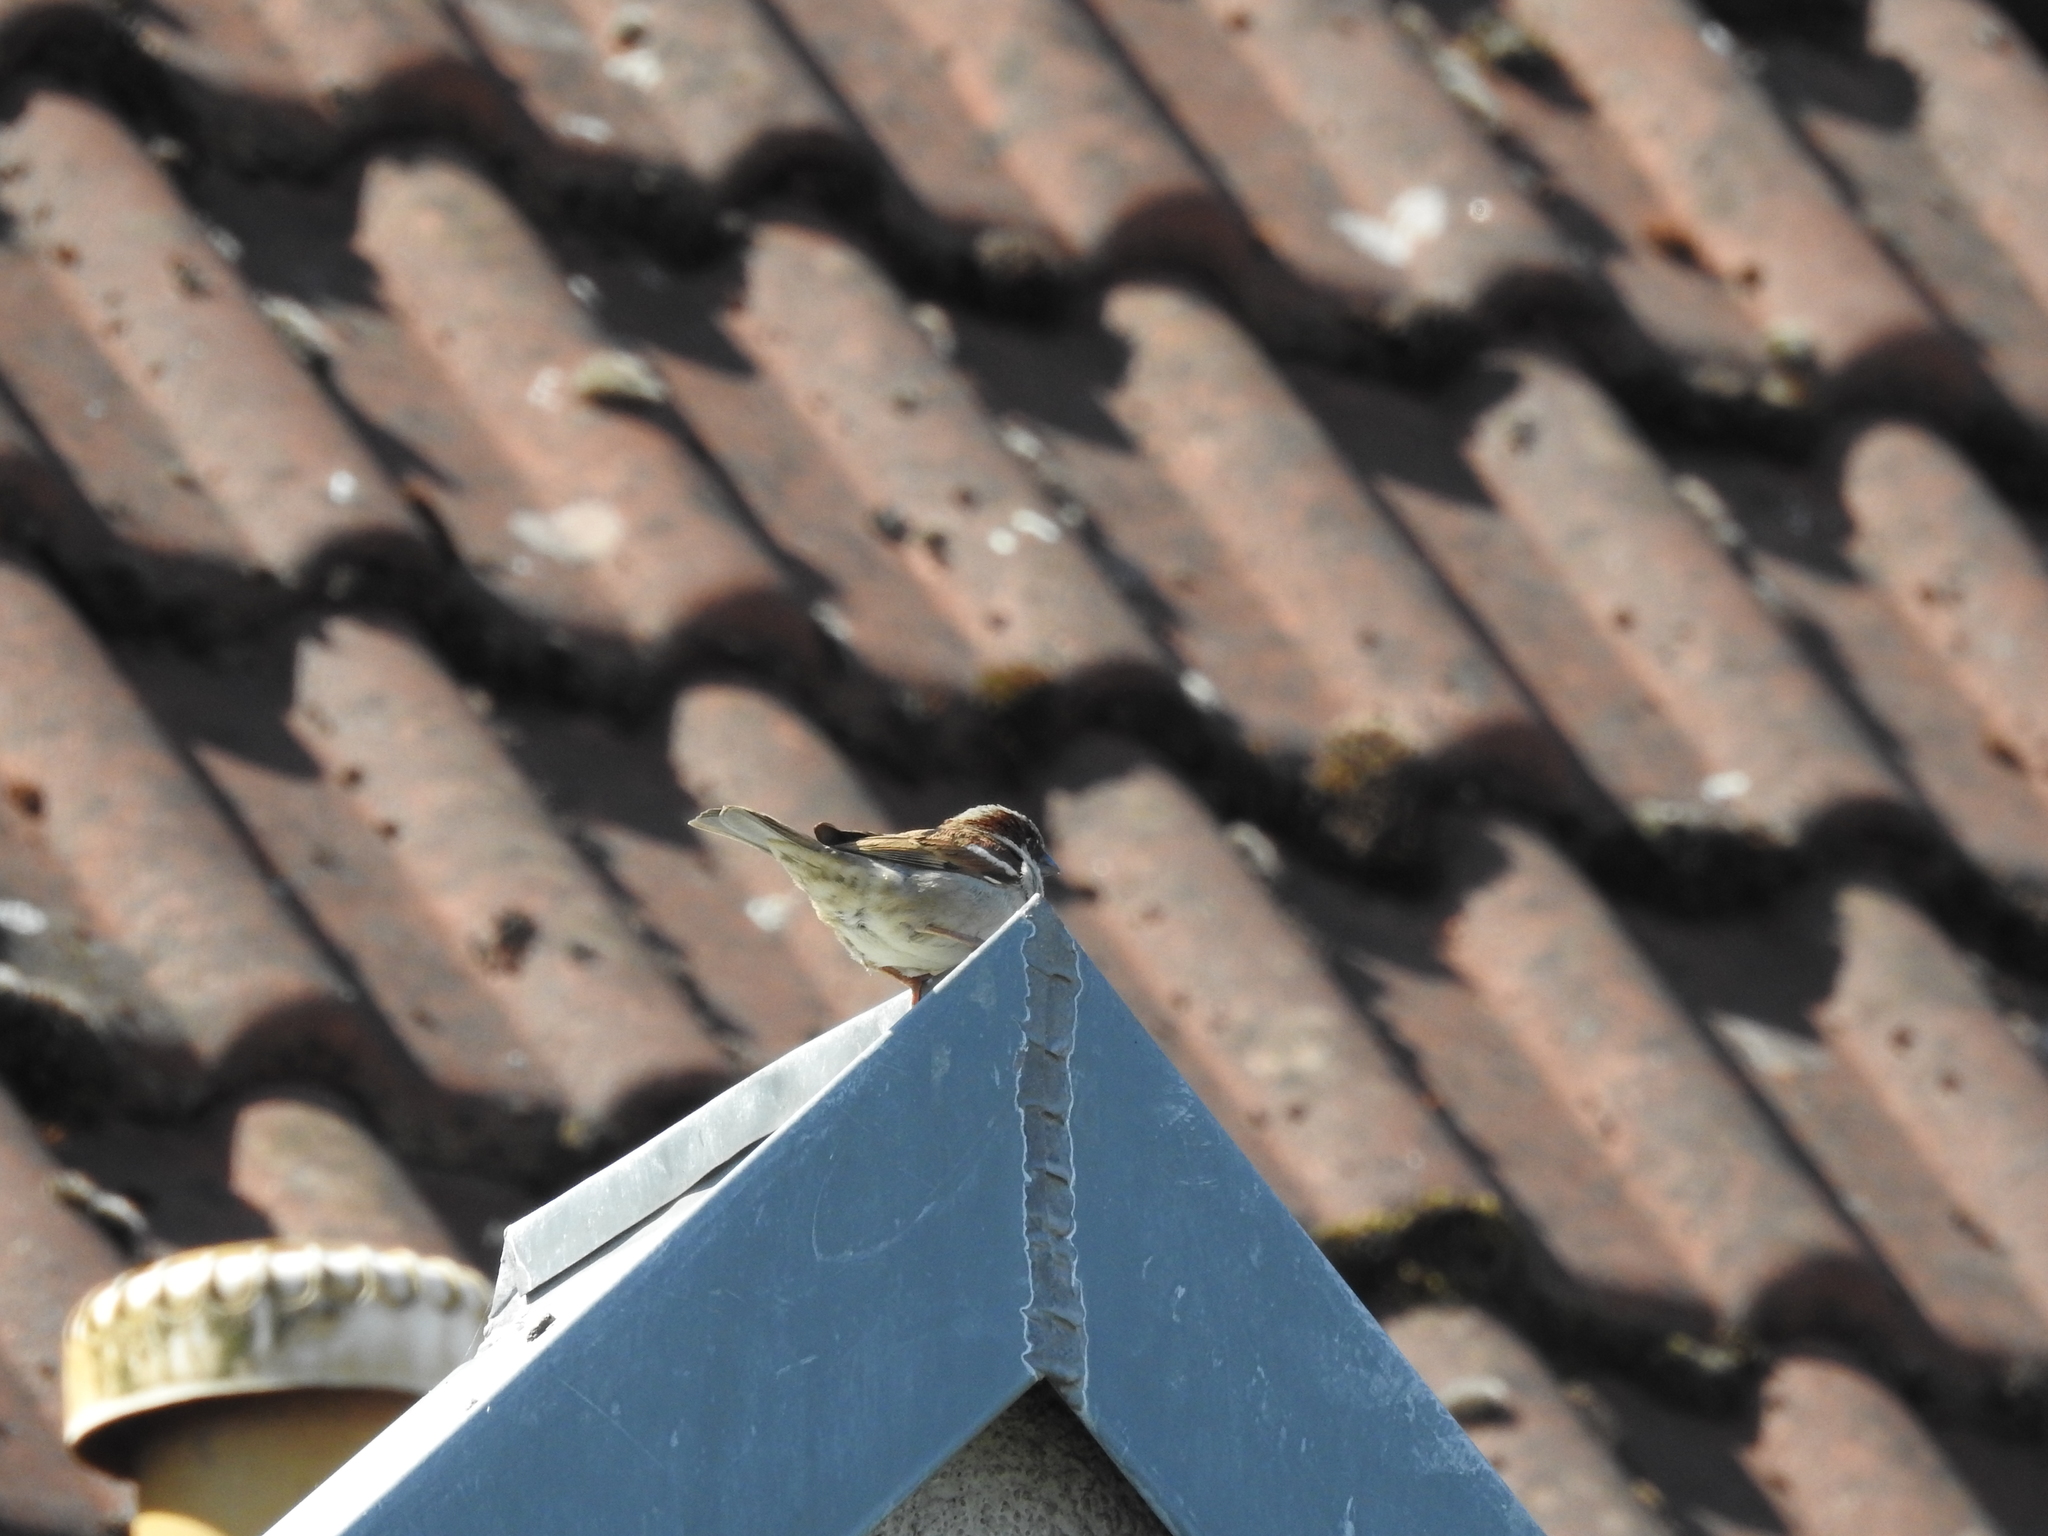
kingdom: Animalia
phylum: Chordata
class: Aves
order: Passeriformes
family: Passeridae
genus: Passer
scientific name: Passer domesticus
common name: House sparrow
